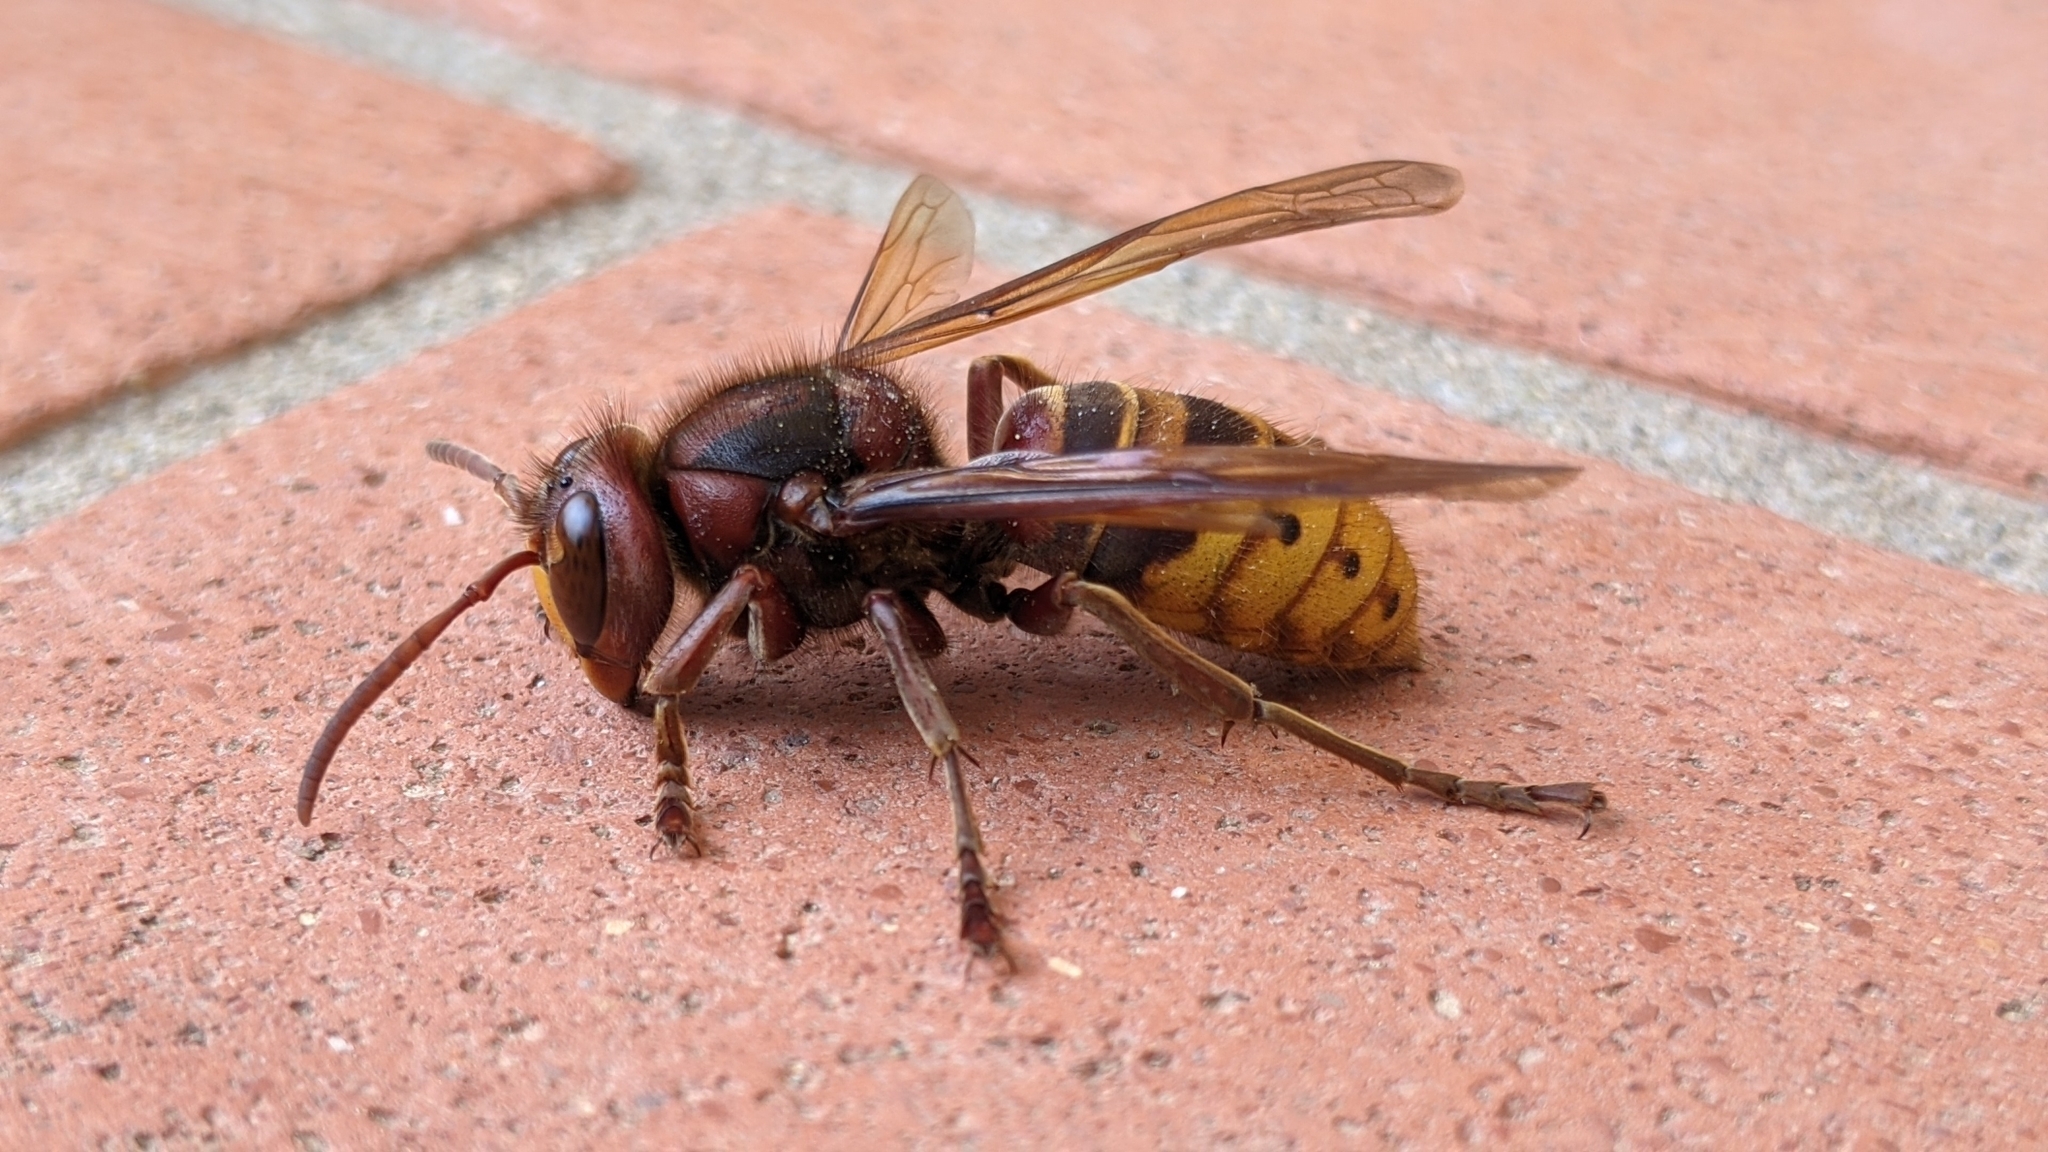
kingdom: Animalia
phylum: Arthropoda
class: Insecta
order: Hymenoptera
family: Vespidae
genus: Vespa
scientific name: Vespa crabro
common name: Hornet
